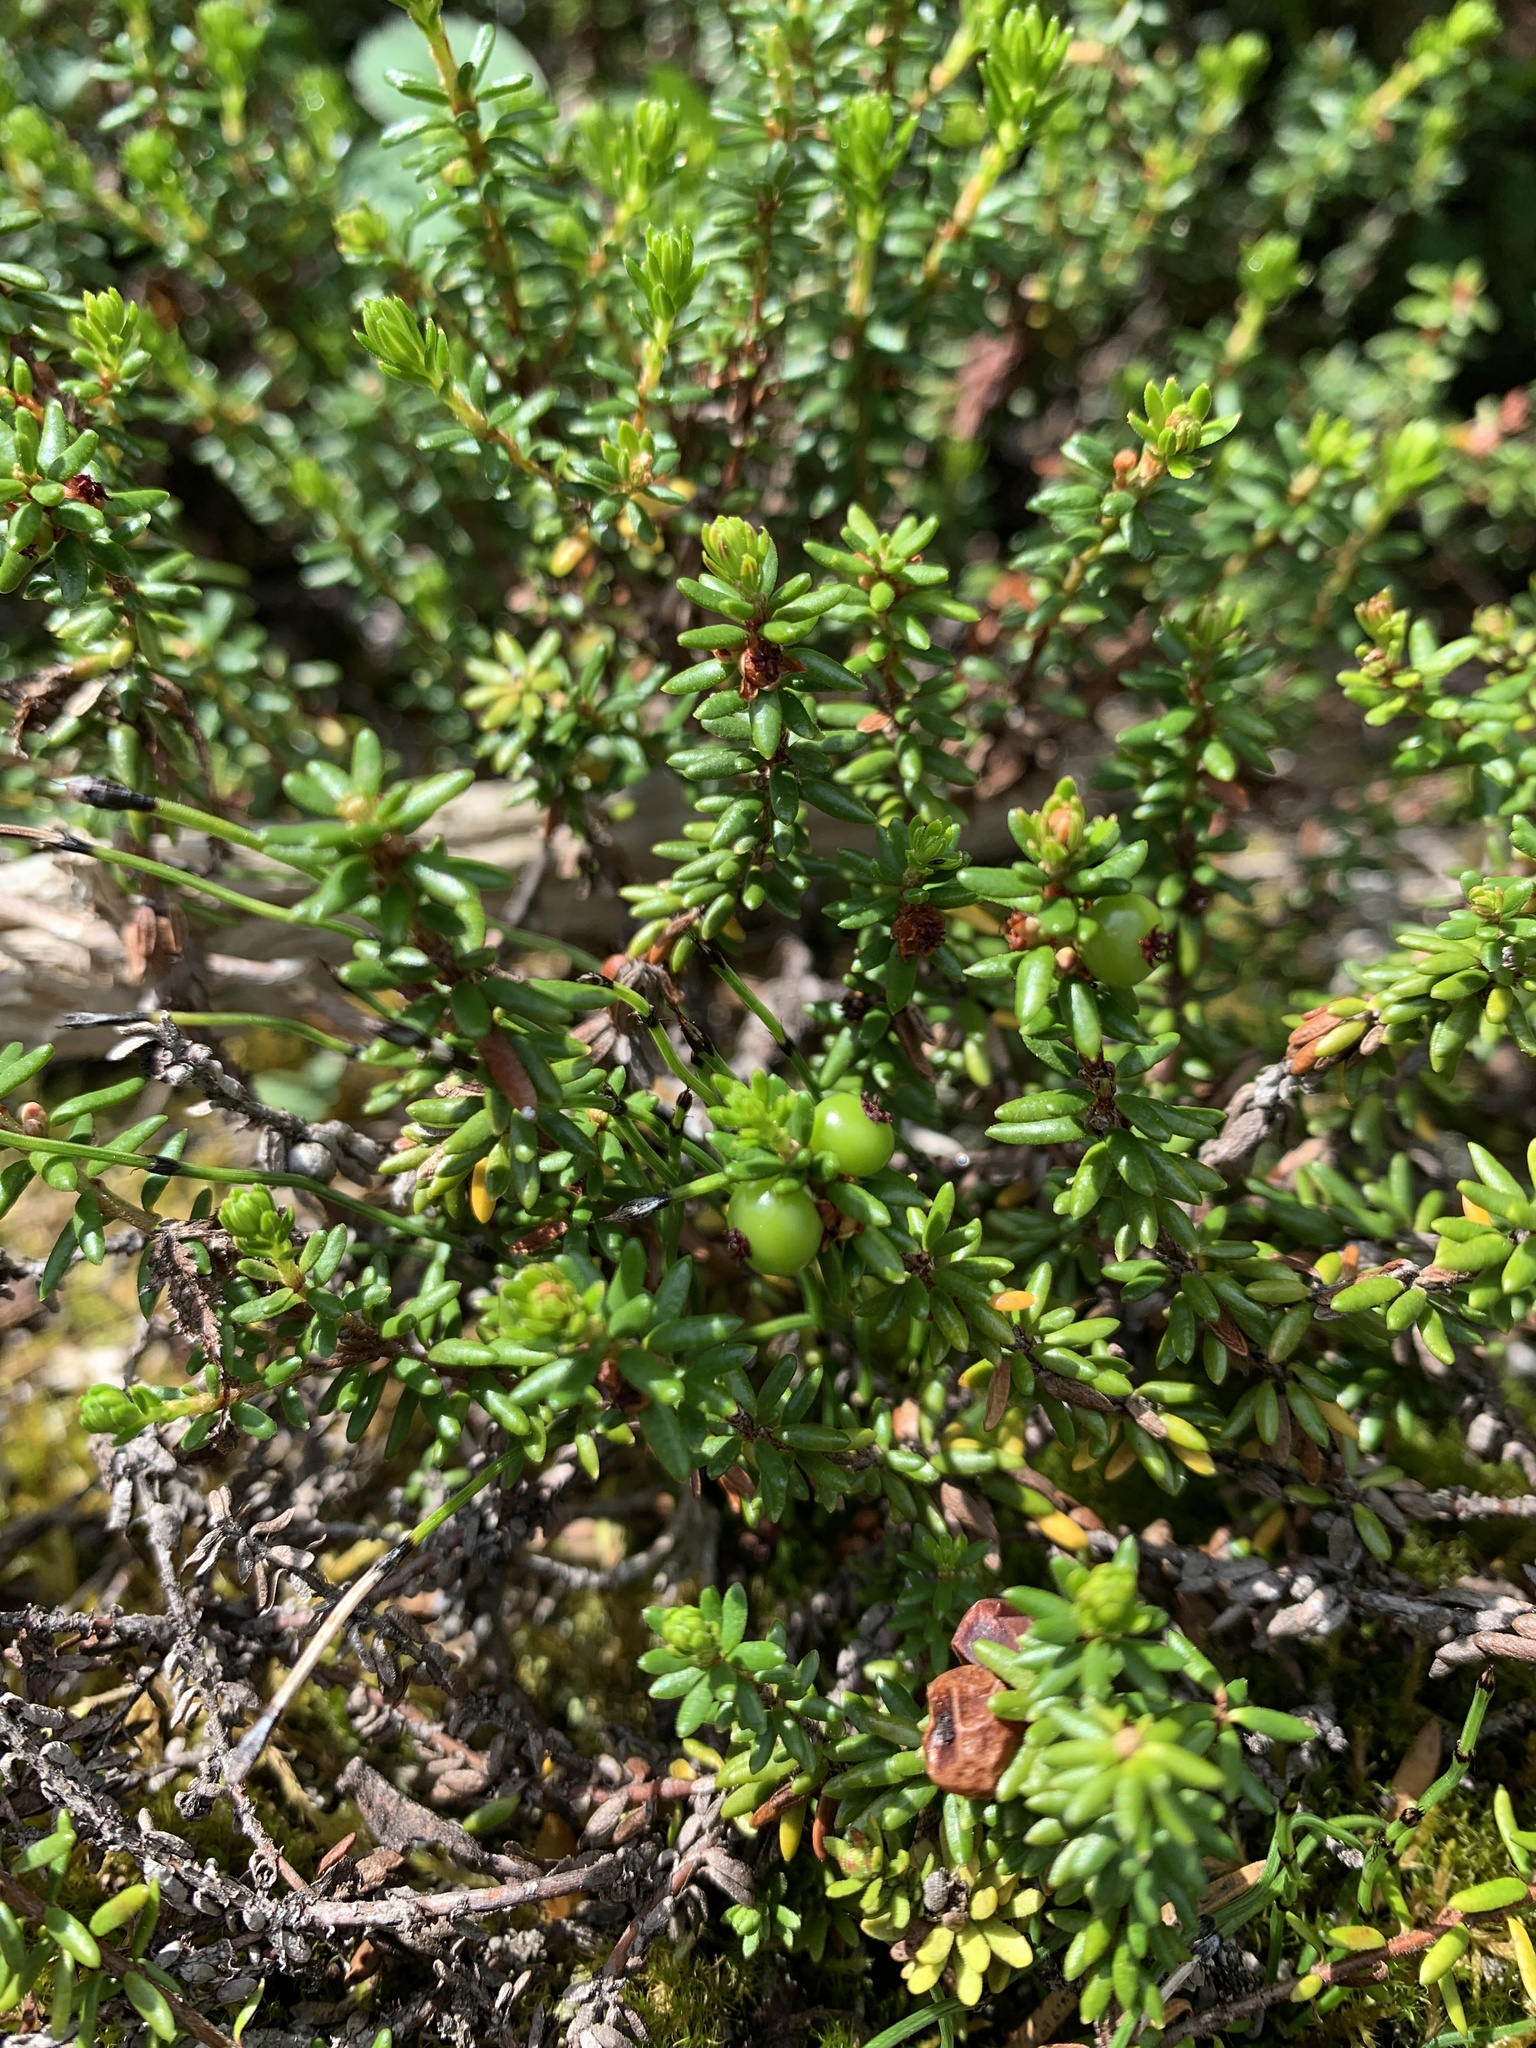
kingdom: Plantae
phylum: Tracheophyta
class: Magnoliopsida
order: Ericales
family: Ericaceae
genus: Empetrum
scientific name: Empetrum nigrum
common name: Black crowberry
